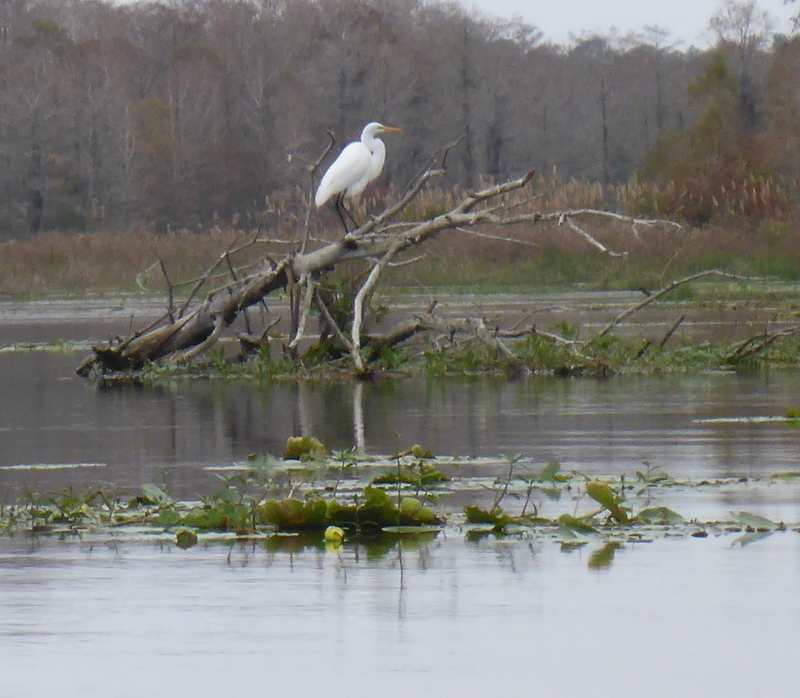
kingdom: Animalia
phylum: Chordata
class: Aves
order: Pelecaniformes
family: Ardeidae
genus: Ardea
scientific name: Ardea alba
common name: Great egret
